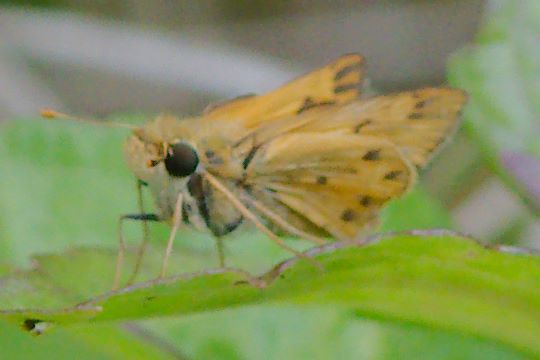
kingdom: Animalia
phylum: Arthropoda
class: Insecta
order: Lepidoptera
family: Hesperiidae
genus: Hylephila
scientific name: Hylephila phyleus
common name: Fiery skipper
